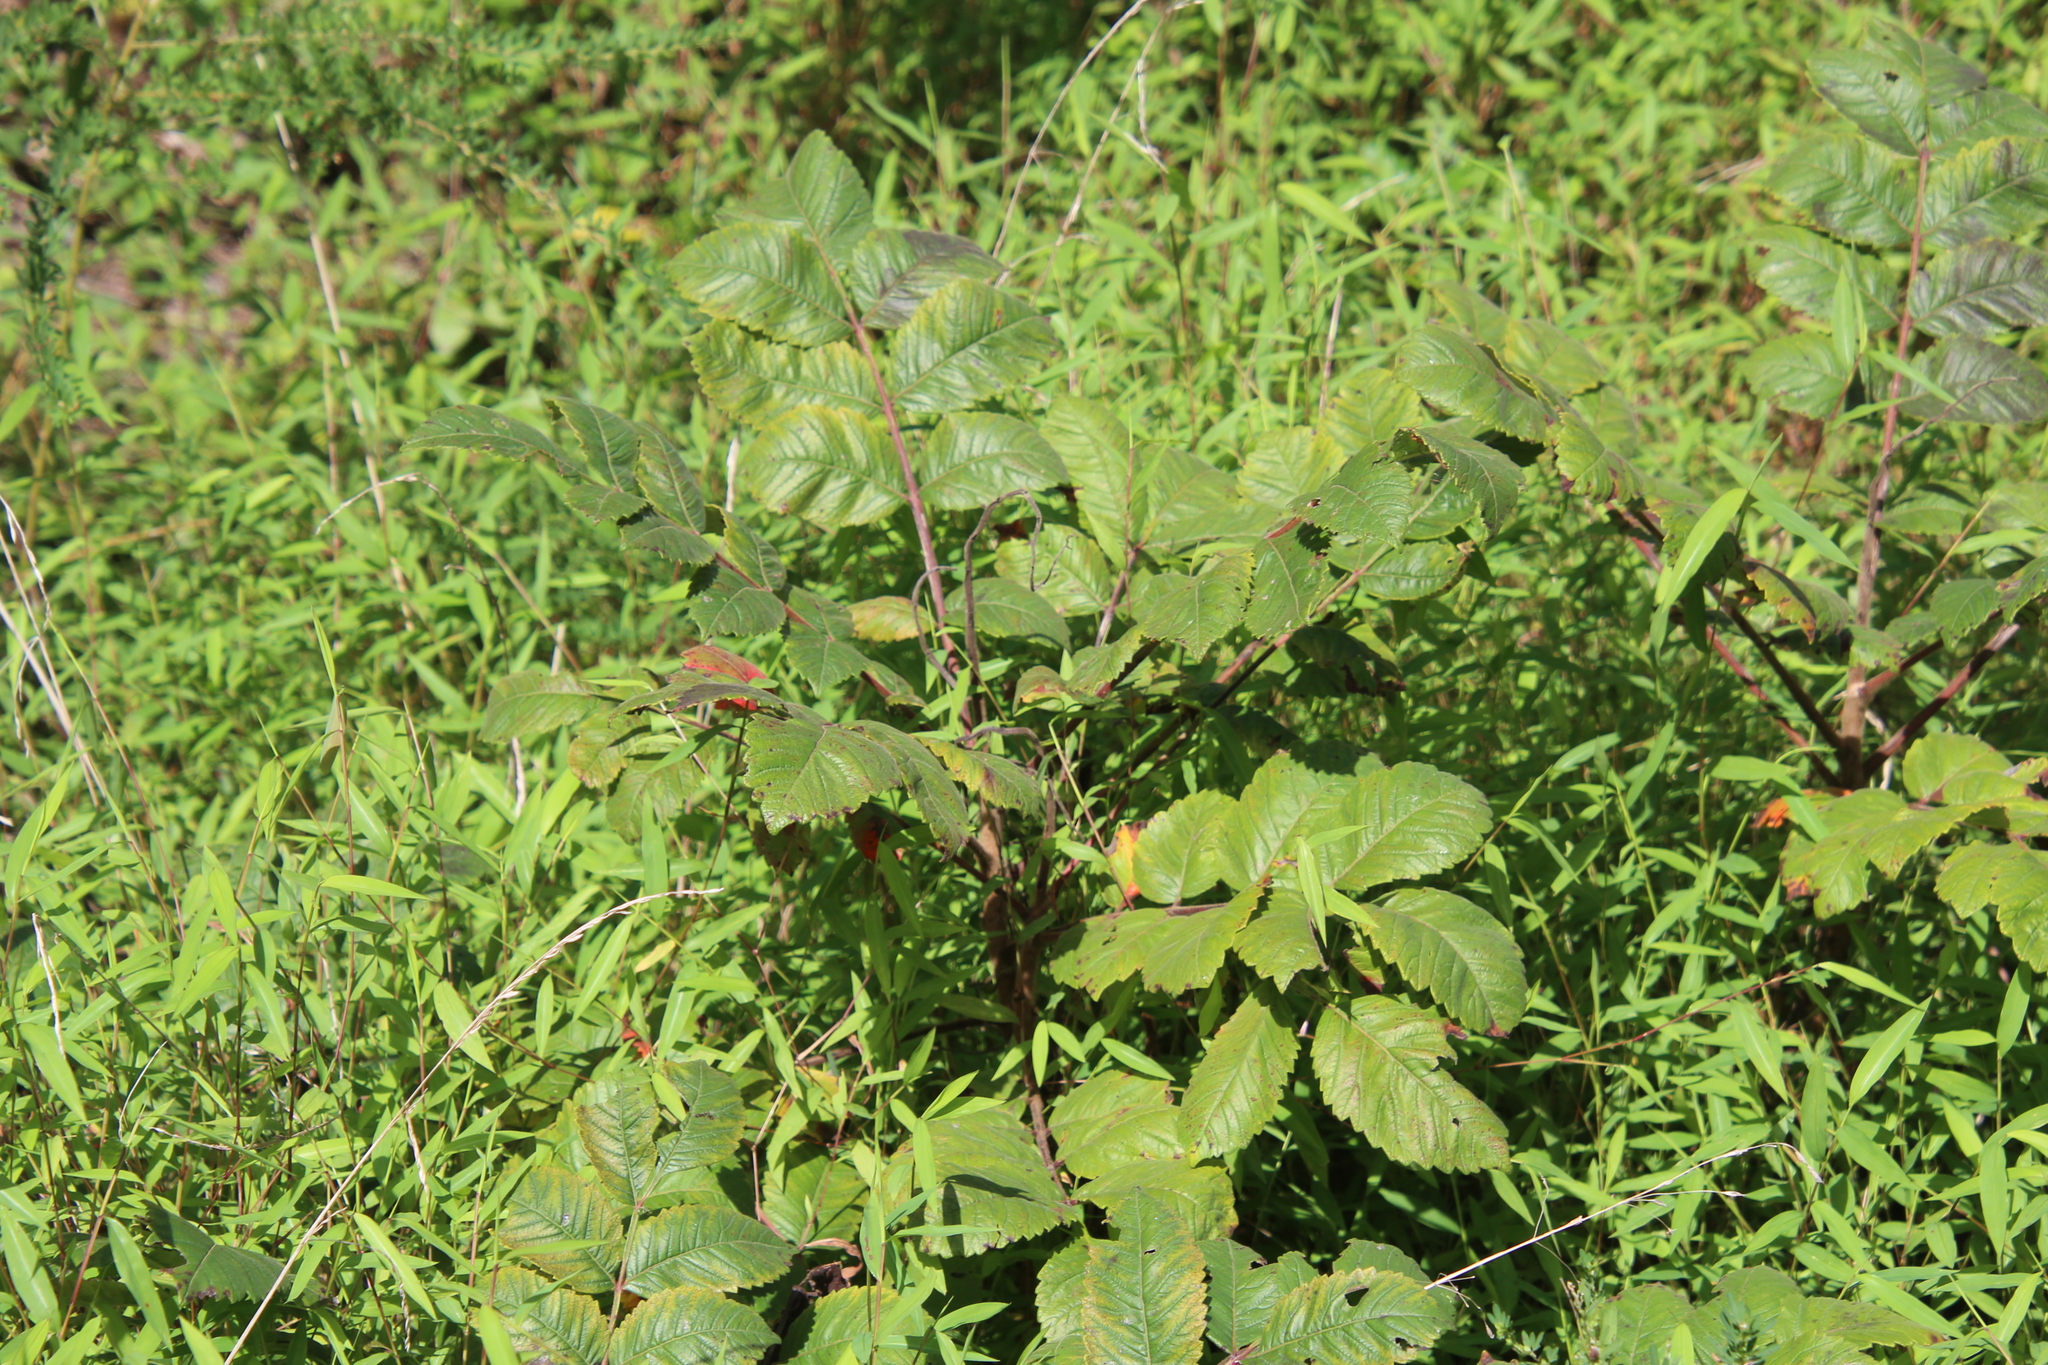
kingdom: Plantae
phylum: Tracheophyta
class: Magnoliopsida
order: Sapindales
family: Anacardiaceae
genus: Rhus
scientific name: Rhus michauxii
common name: Michaux's sumac
